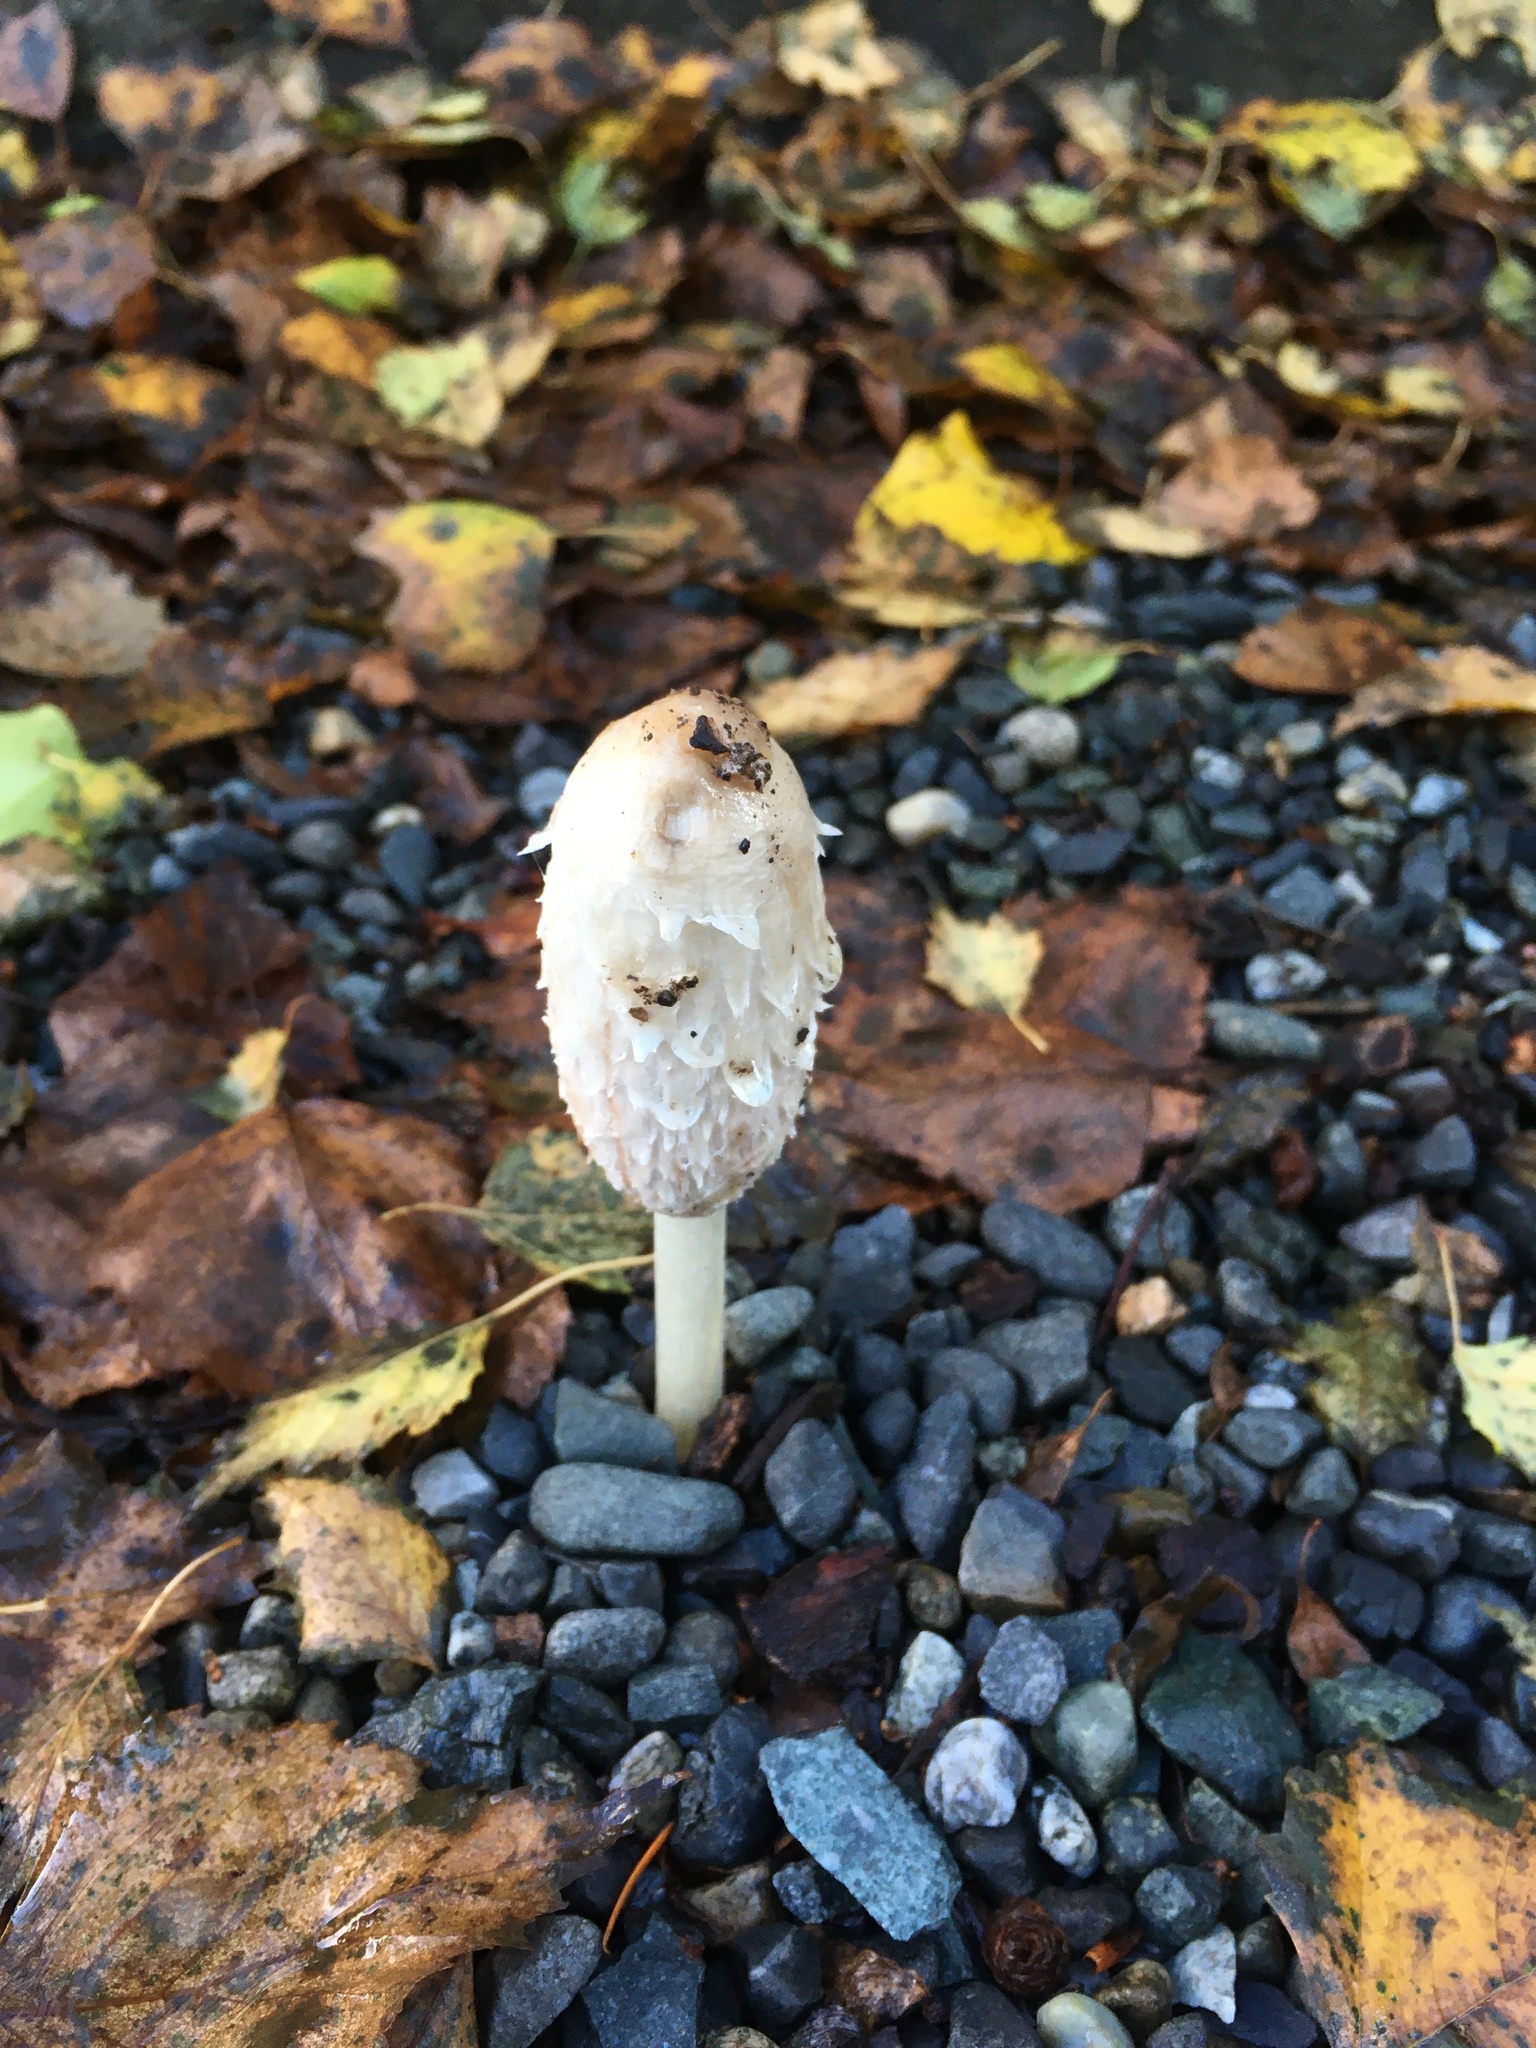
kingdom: Fungi
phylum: Basidiomycota
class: Agaricomycetes
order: Agaricales
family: Agaricaceae
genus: Coprinus
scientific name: Coprinus comatus
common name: Lawyer's wig
